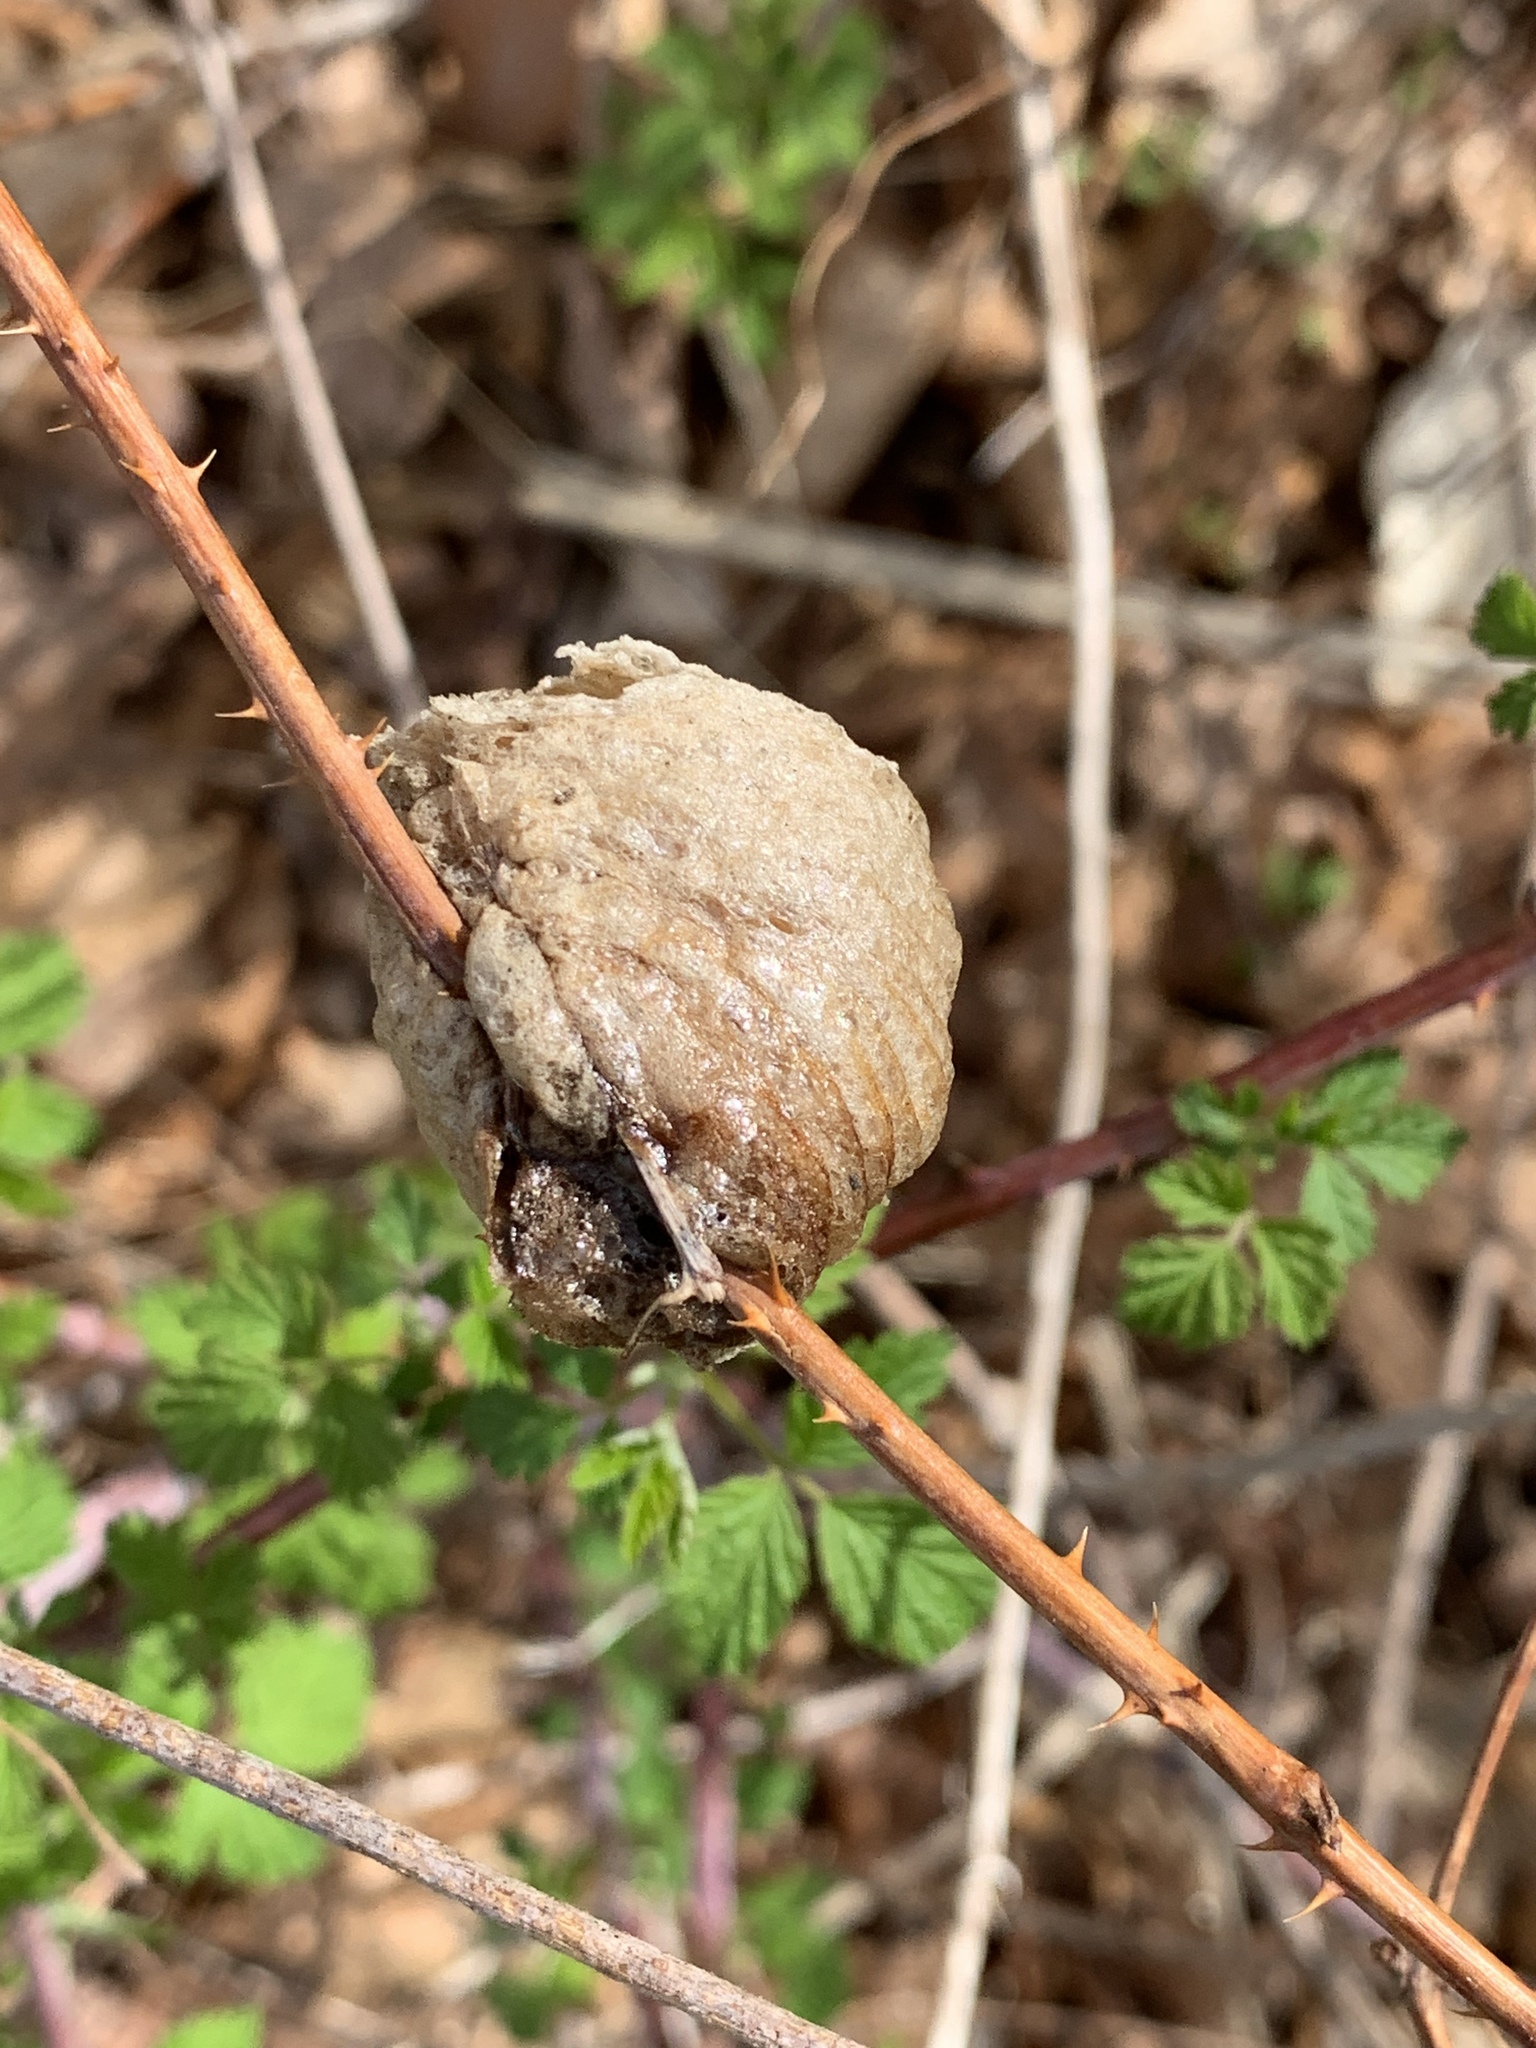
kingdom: Animalia
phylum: Arthropoda
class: Insecta
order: Mantodea
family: Mantidae
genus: Tenodera
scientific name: Tenodera sinensis
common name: Chinese mantis
